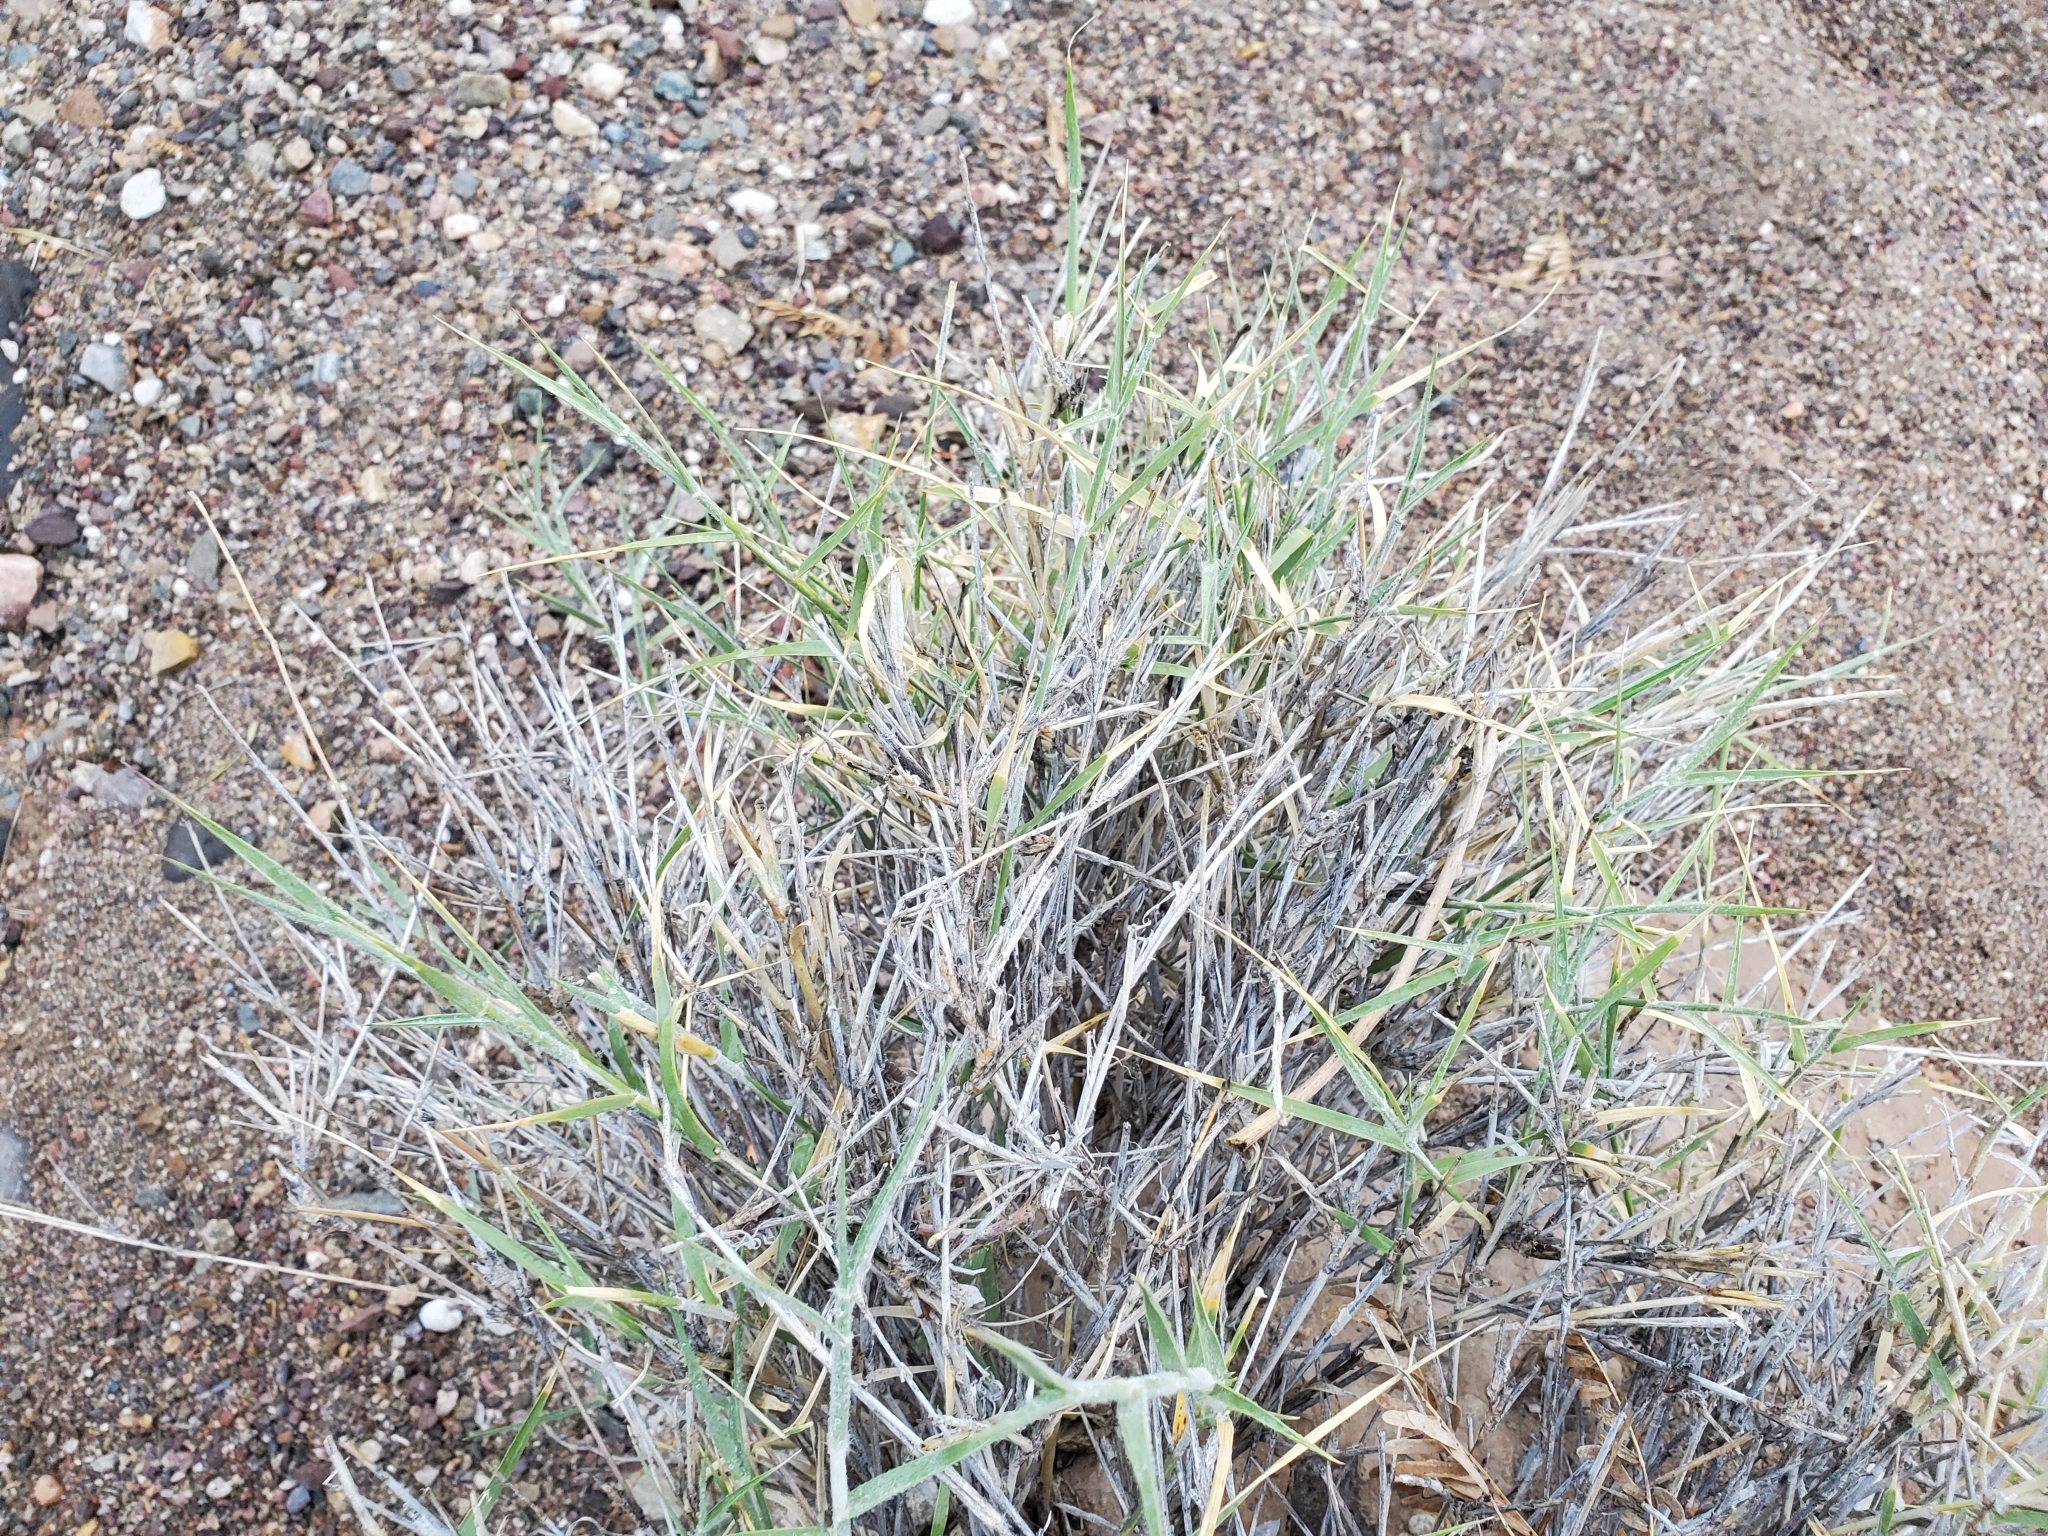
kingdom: Plantae
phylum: Tracheophyta
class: Liliopsida
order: Poales
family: Poaceae
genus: Hilaria
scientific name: Hilaria rigida
